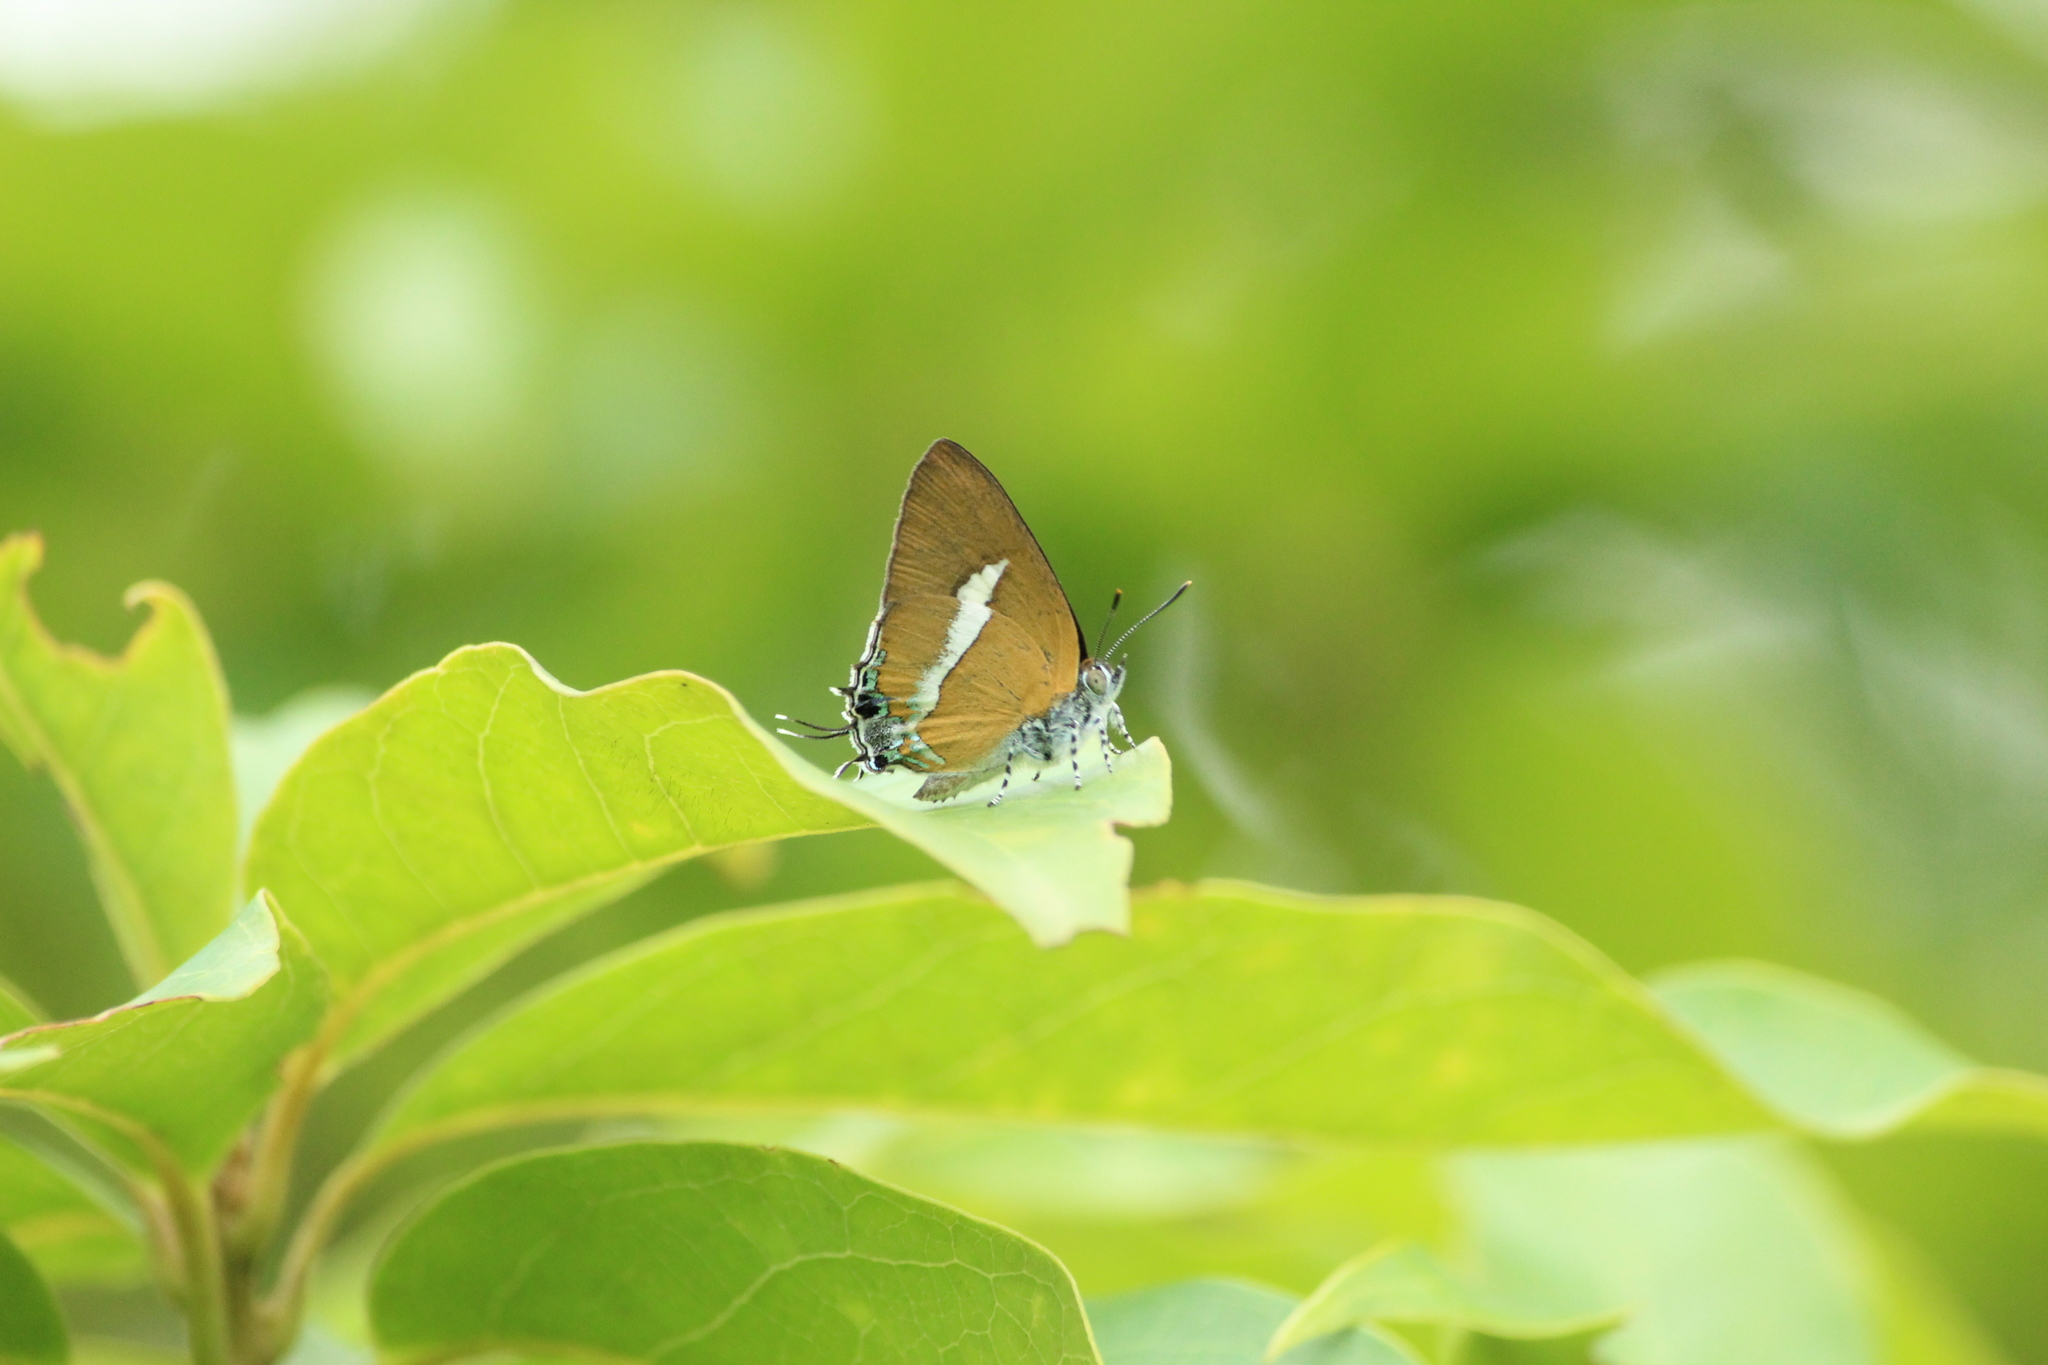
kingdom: Animalia
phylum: Arthropoda
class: Insecta
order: Lepidoptera
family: Lycaenidae
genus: Horaga
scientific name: Horaga syrinx
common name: Ambon onyx
